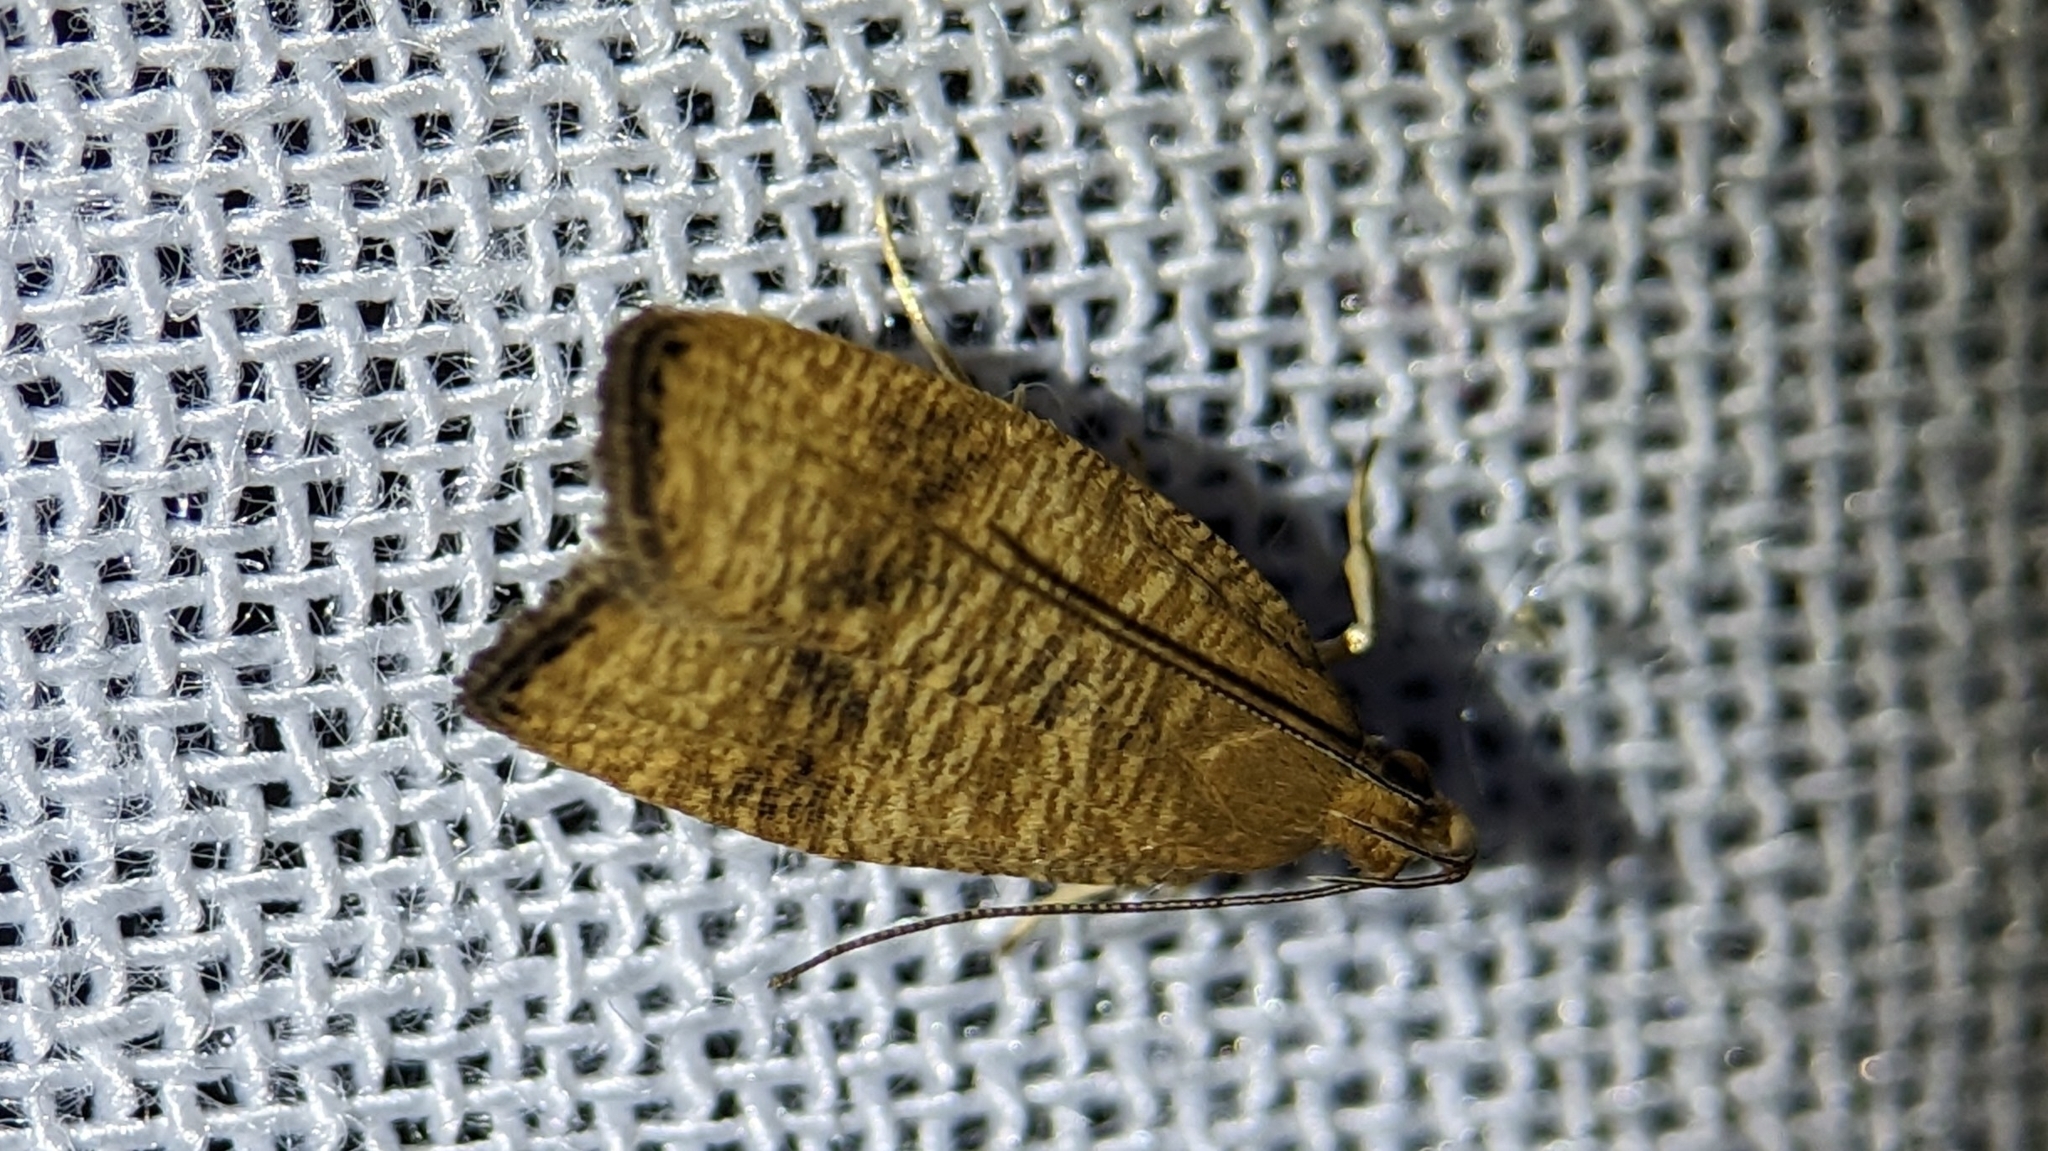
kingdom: Animalia
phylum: Arthropoda
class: Insecta
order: Lepidoptera
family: Depressariidae
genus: Psilocorsis
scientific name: Psilocorsis cryptolechiella
